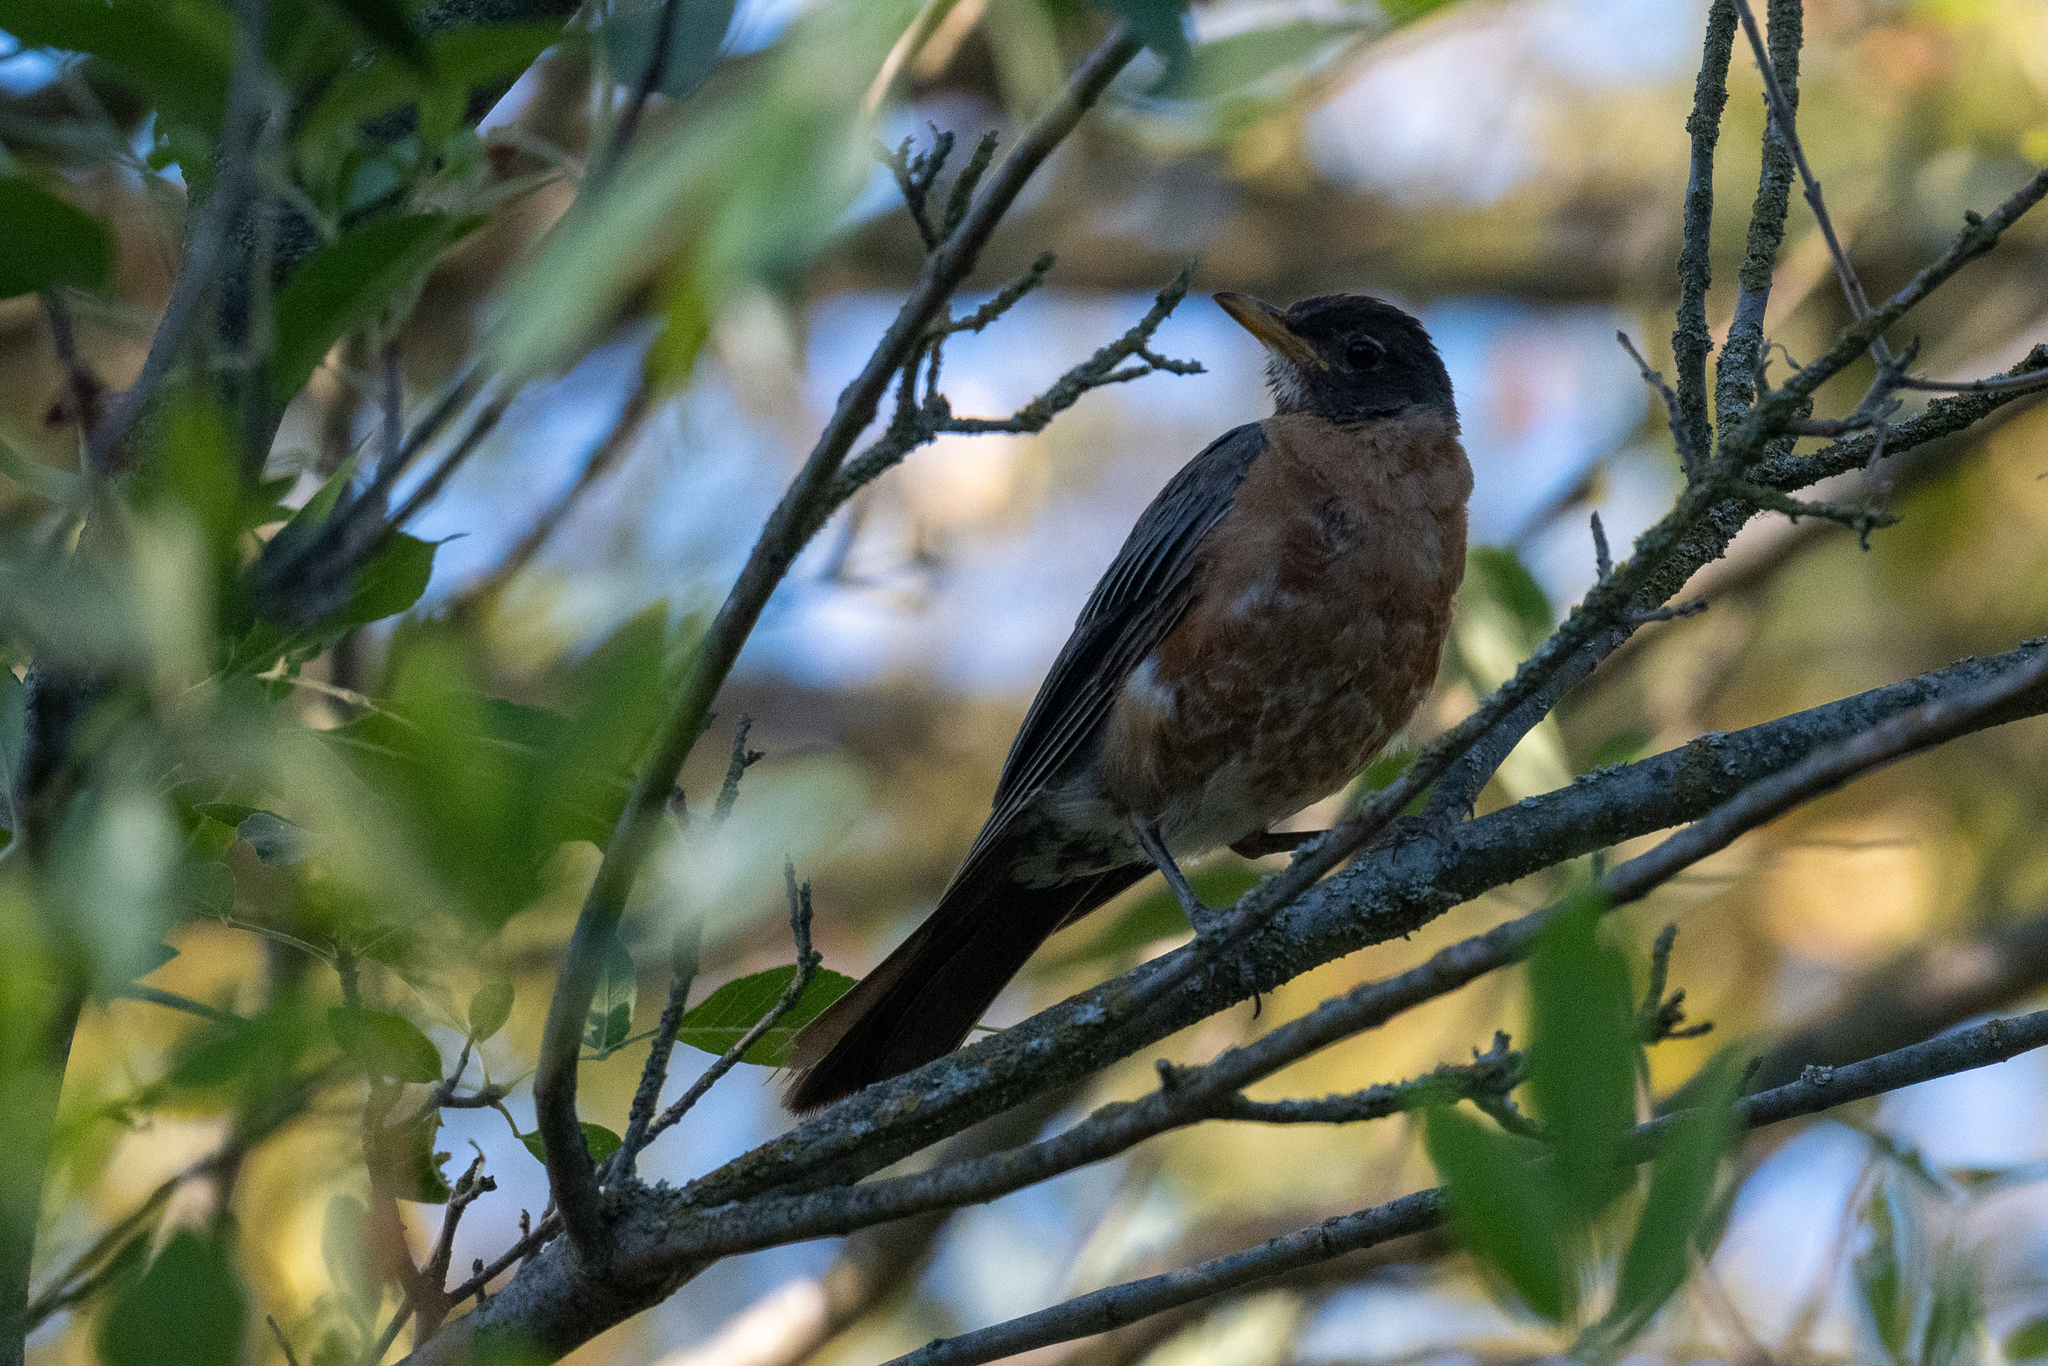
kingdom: Animalia
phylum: Chordata
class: Aves
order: Passeriformes
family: Turdidae
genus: Turdus
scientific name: Turdus migratorius
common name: American robin
